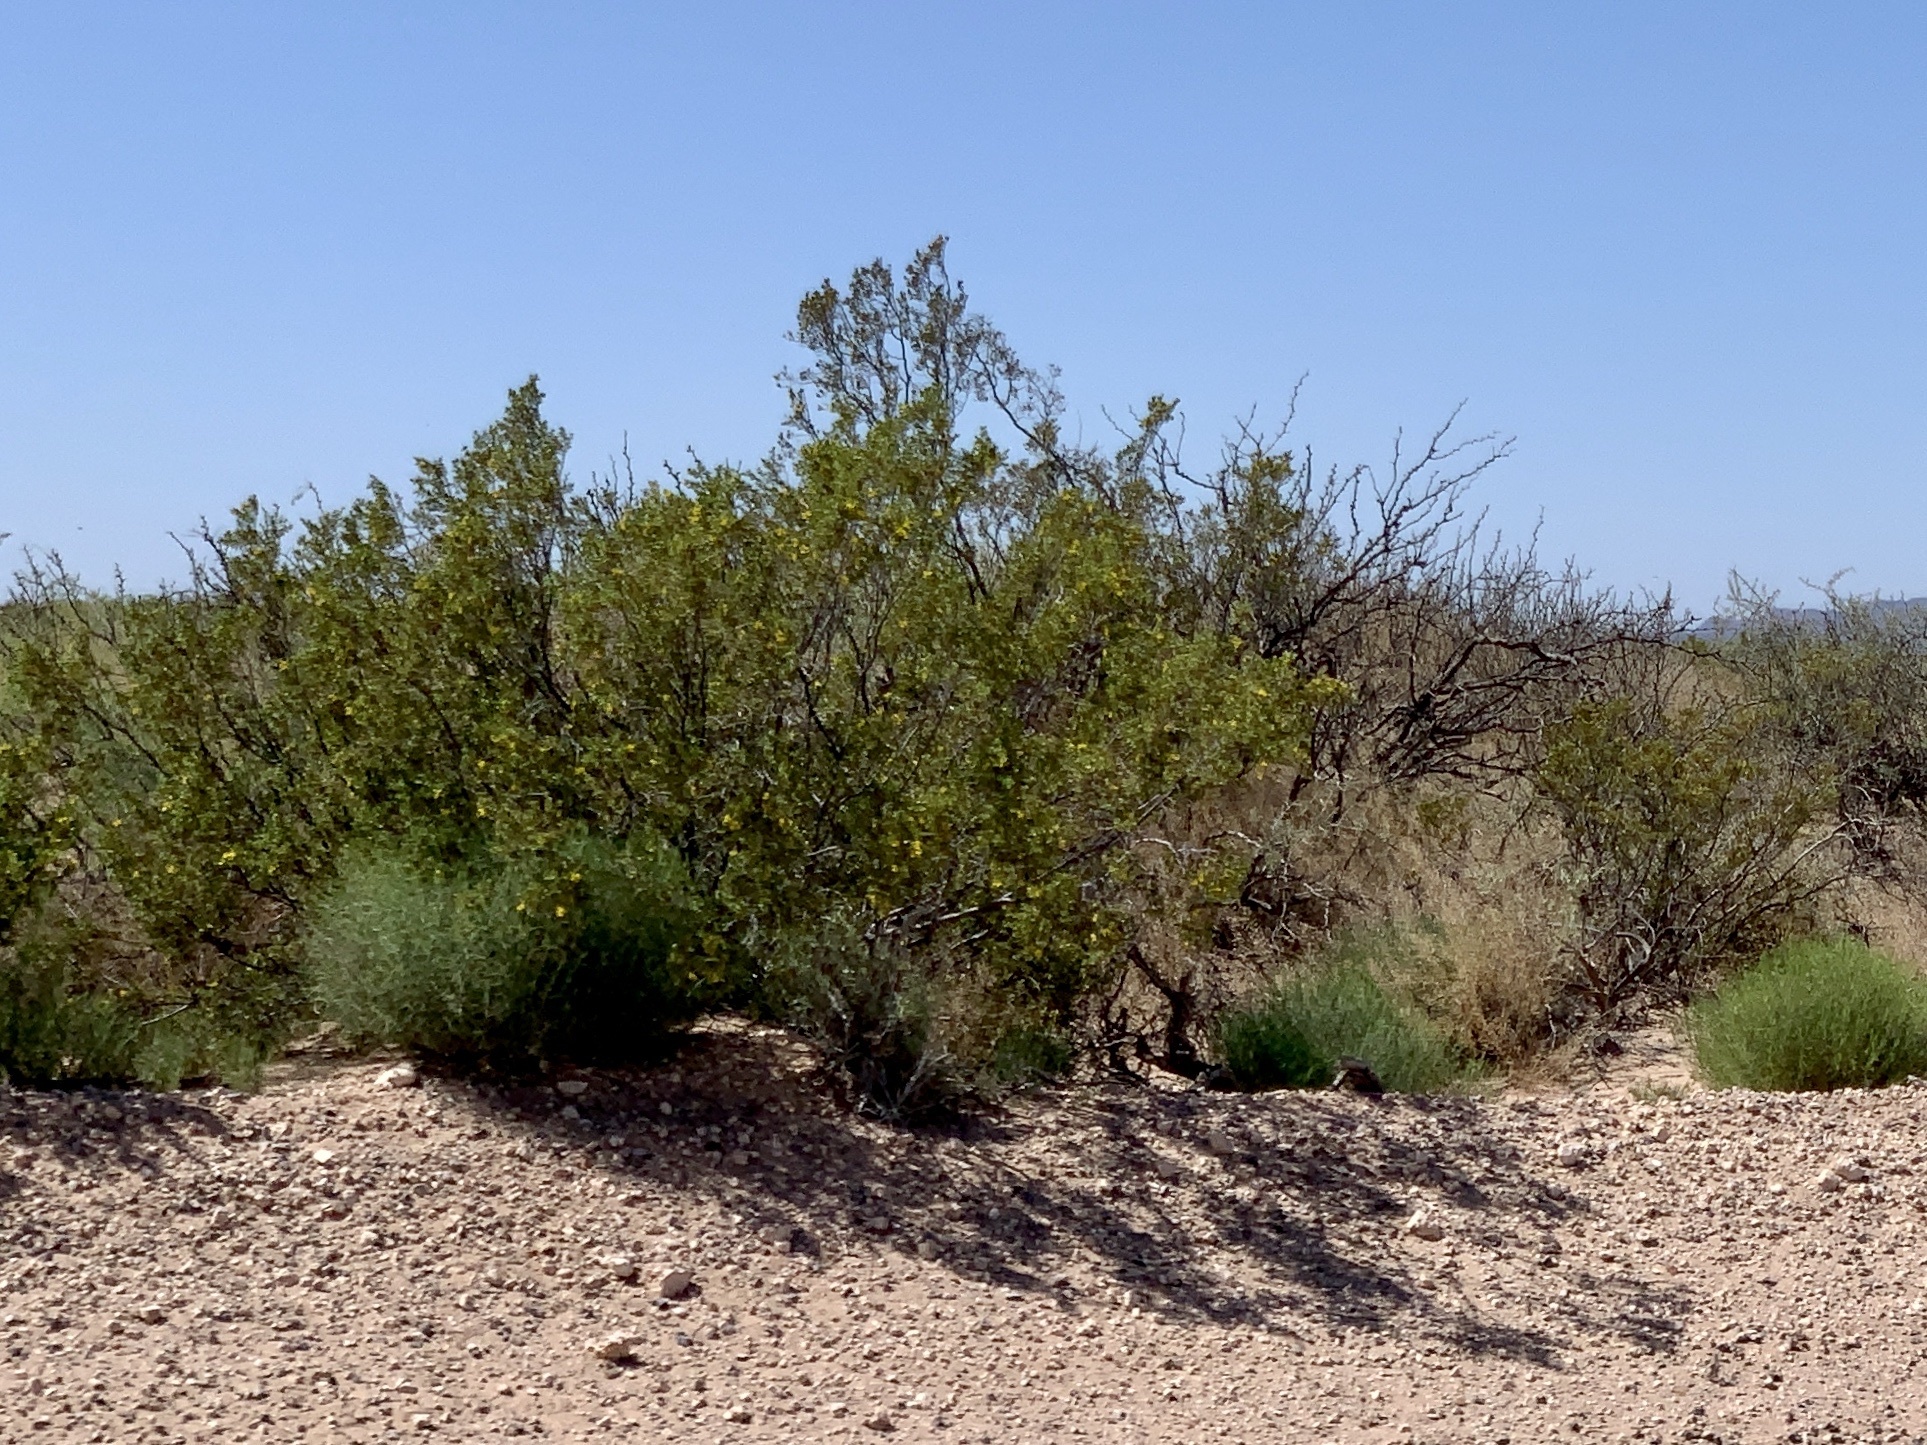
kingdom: Plantae
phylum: Tracheophyta
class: Magnoliopsida
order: Zygophyllales
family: Zygophyllaceae
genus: Larrea
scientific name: Larrea tridentata
